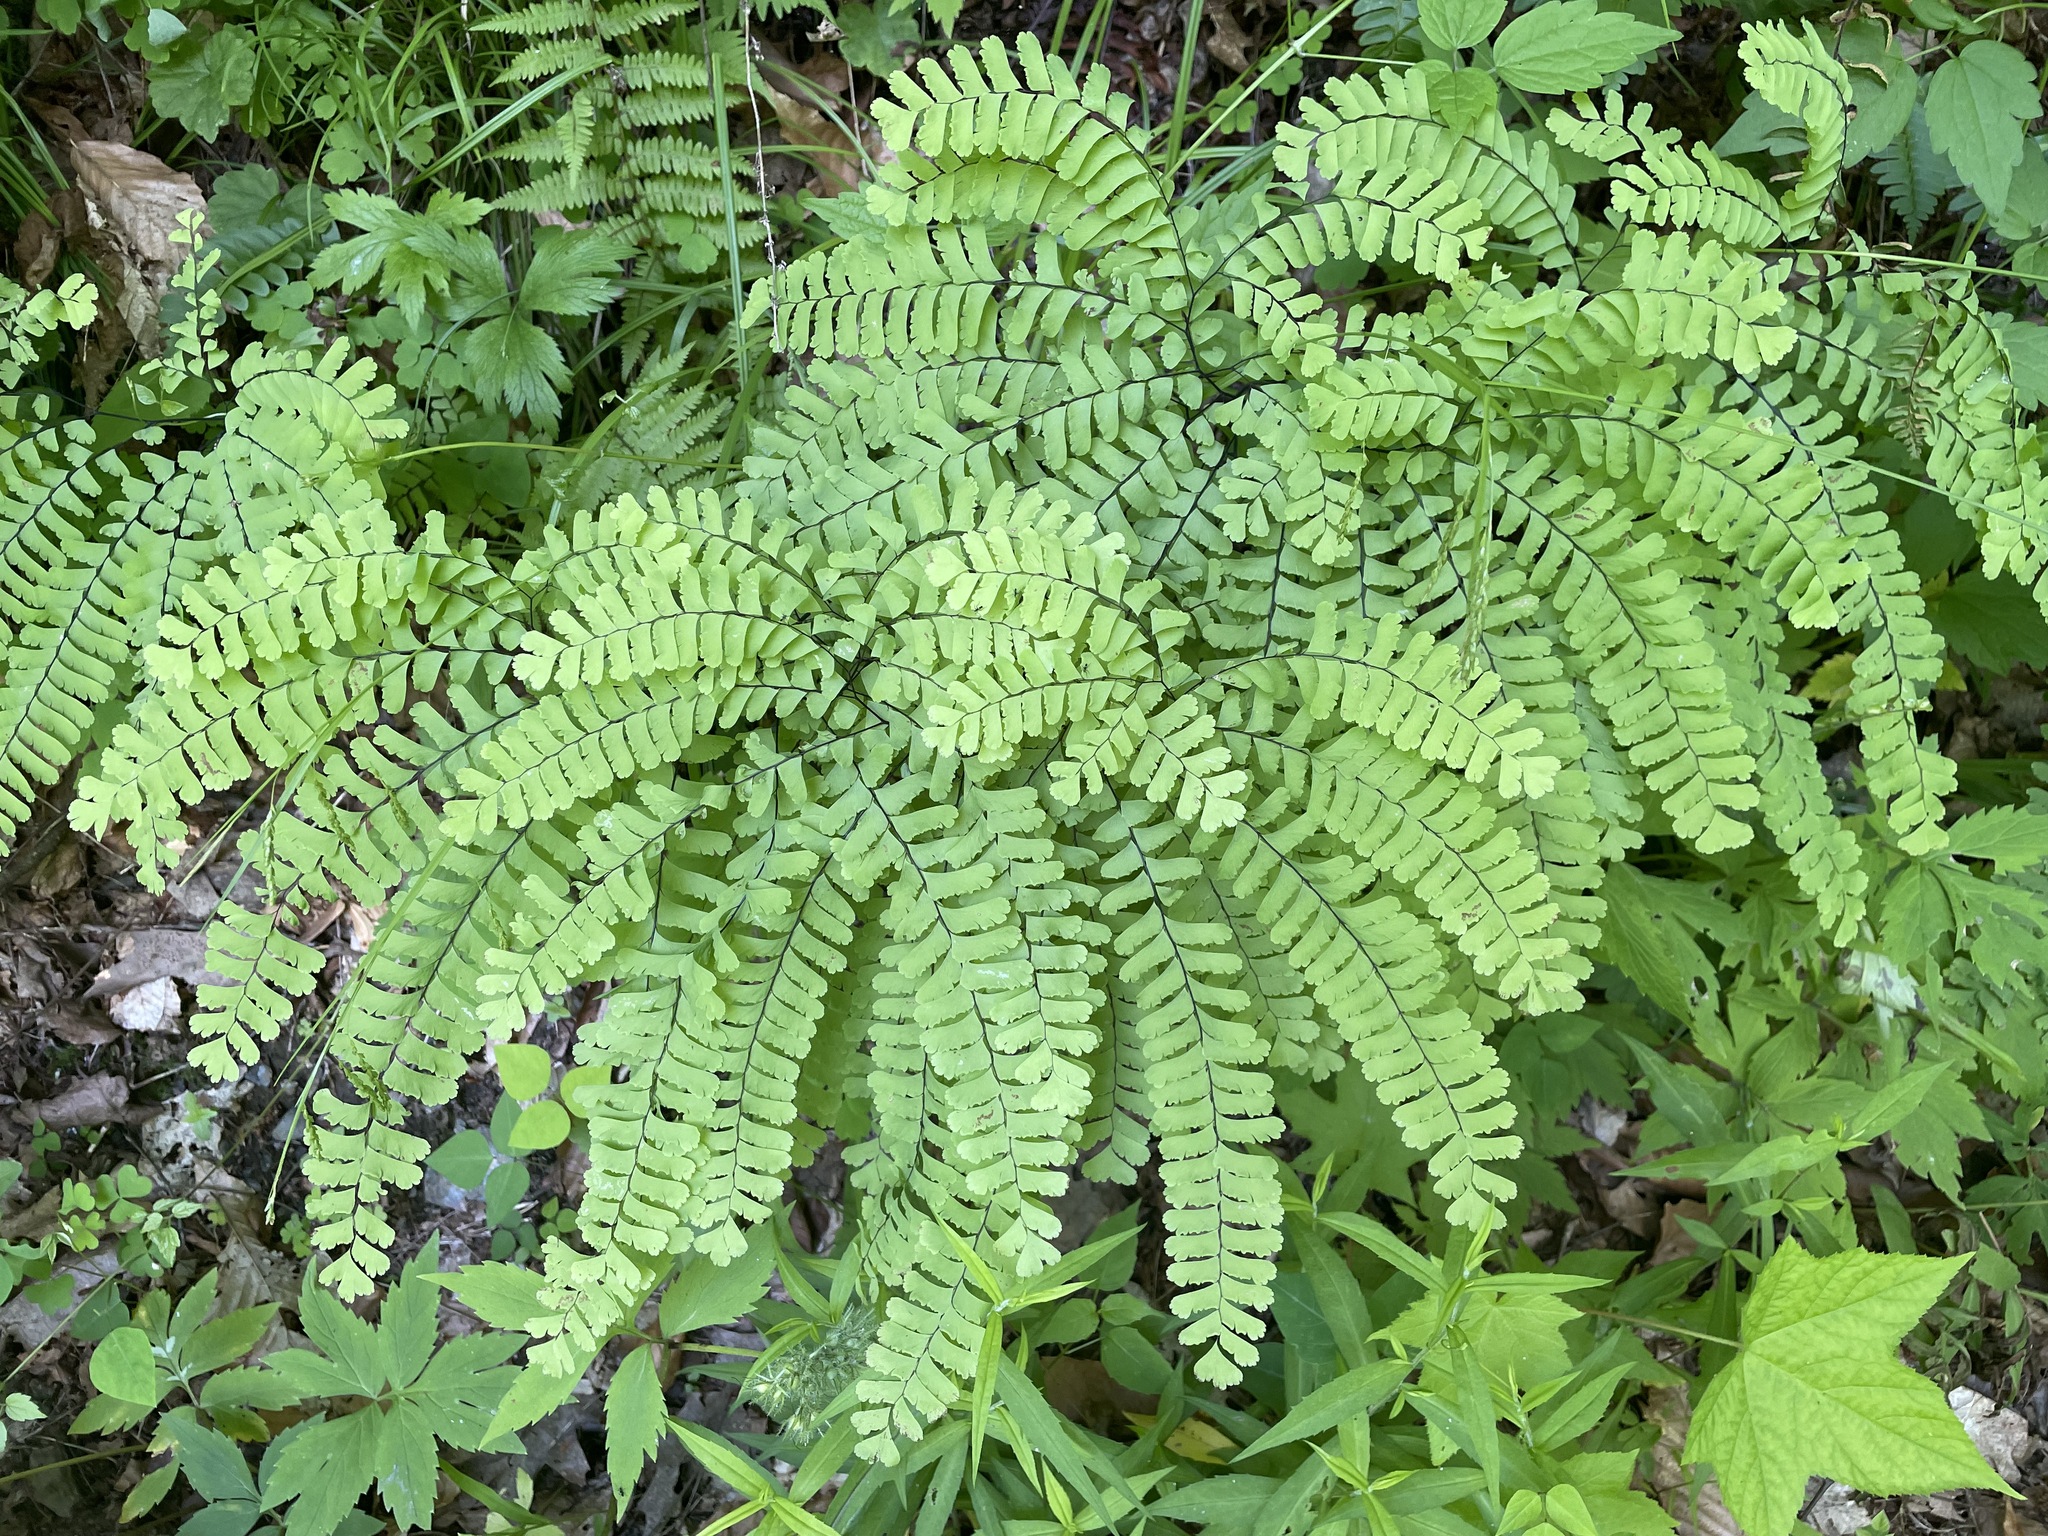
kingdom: Plantae
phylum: Tracheophyta
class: Polypodiopsida
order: Polypodiales
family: Pteridaceae
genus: Adiantum
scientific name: Adiantum pedatum
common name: Five-finger fern
